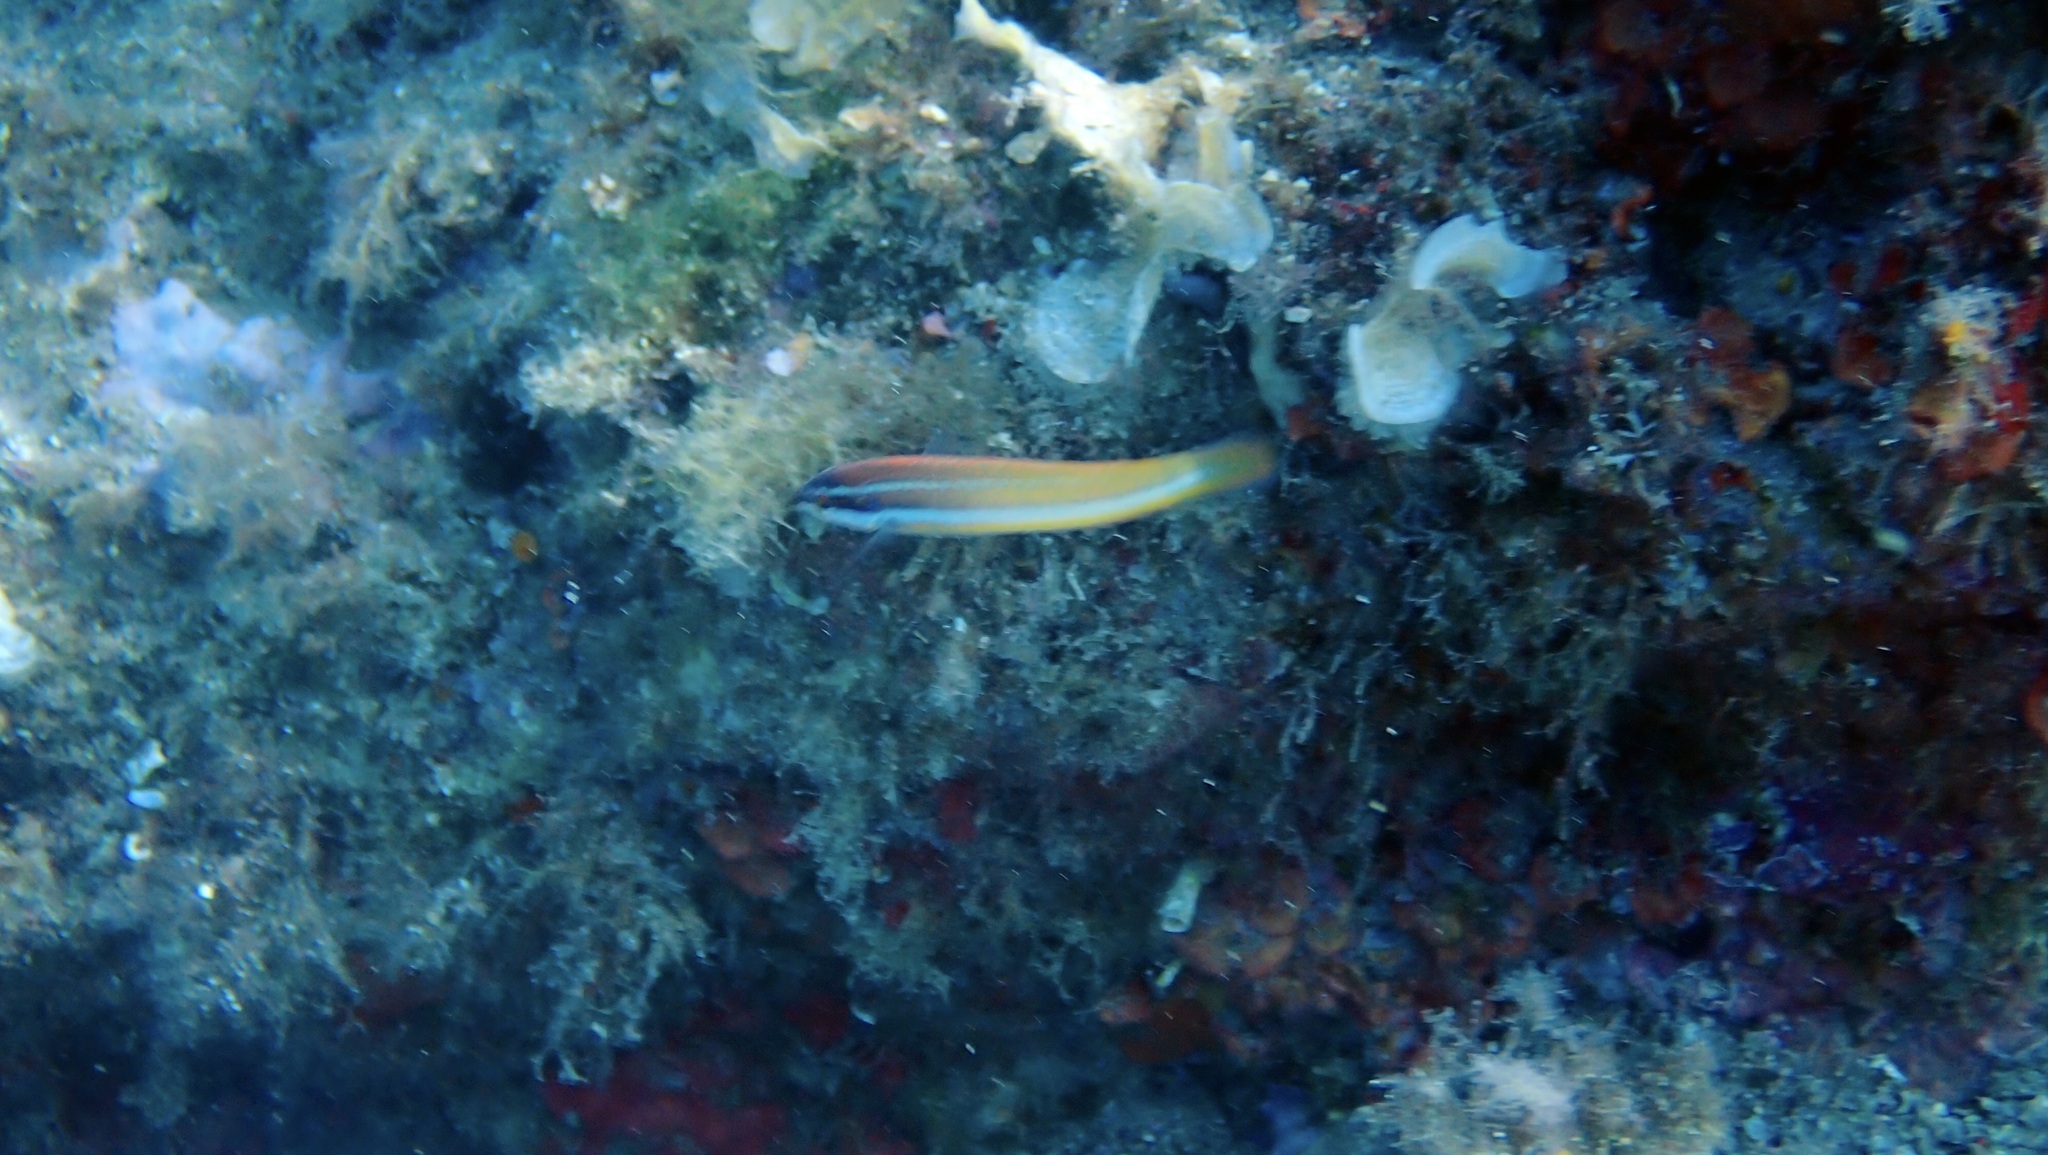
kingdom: Animalia
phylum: Chordata
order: Perciformes
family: Labridae
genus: Coris
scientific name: Coris julis
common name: Rainbow wrasse
